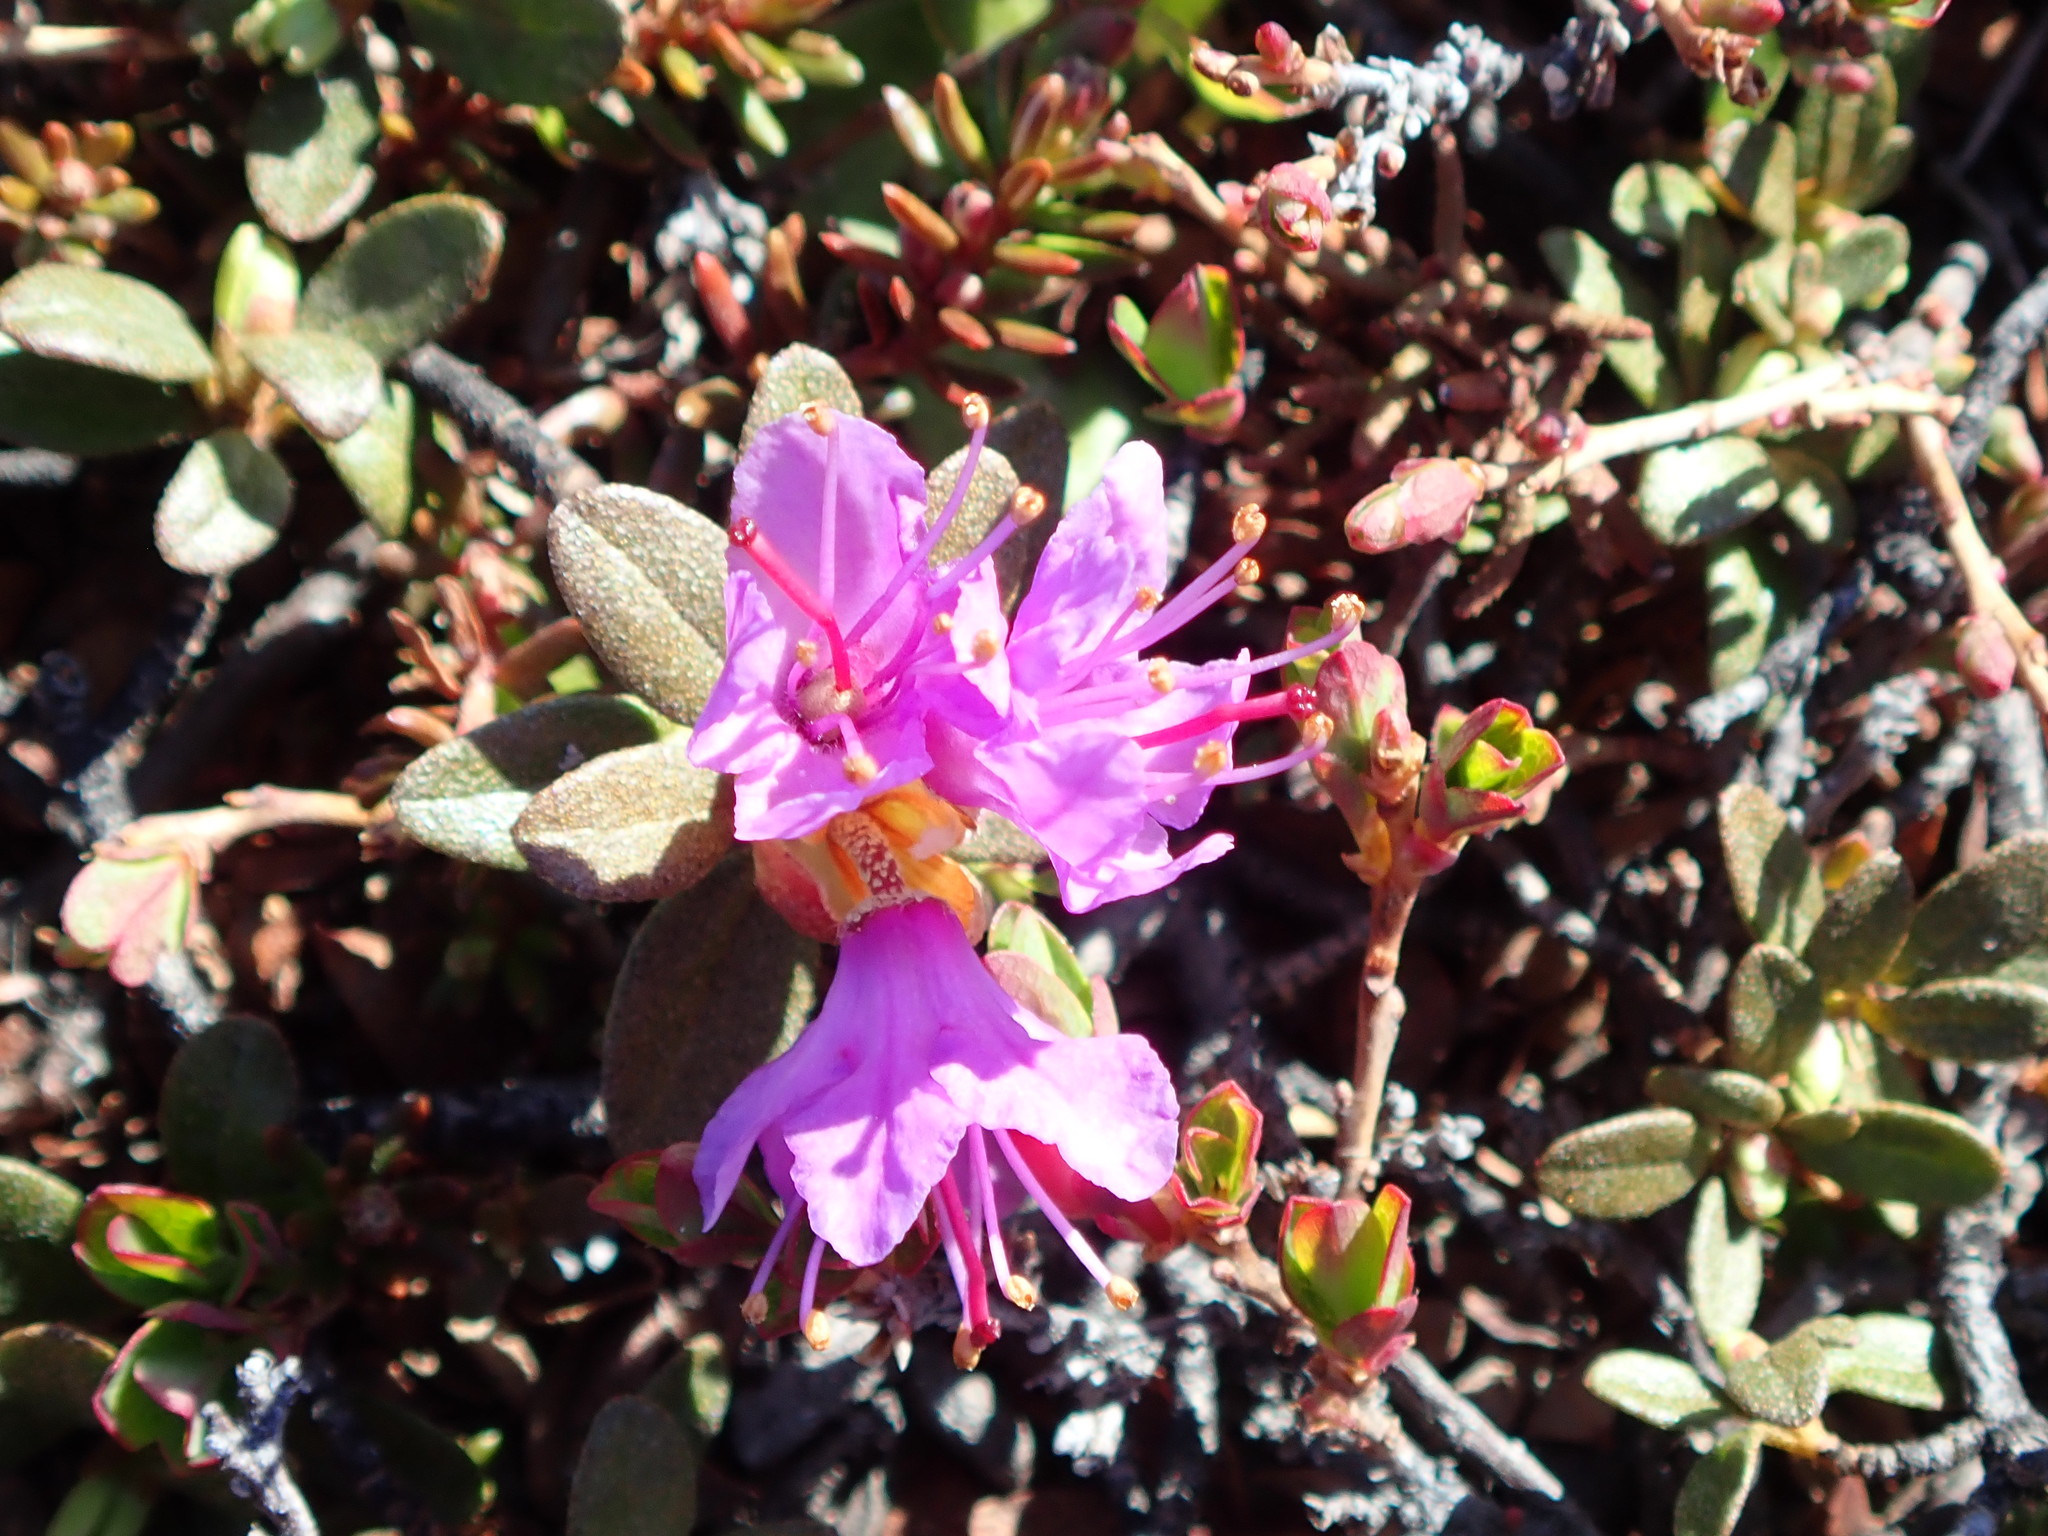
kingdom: Plantae
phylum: Tracheophyta
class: Magnoliopsida
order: Ericales
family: Ericaceae
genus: Rhododendron
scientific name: Rhododendron lapponicum
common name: Lapland rhododendron
